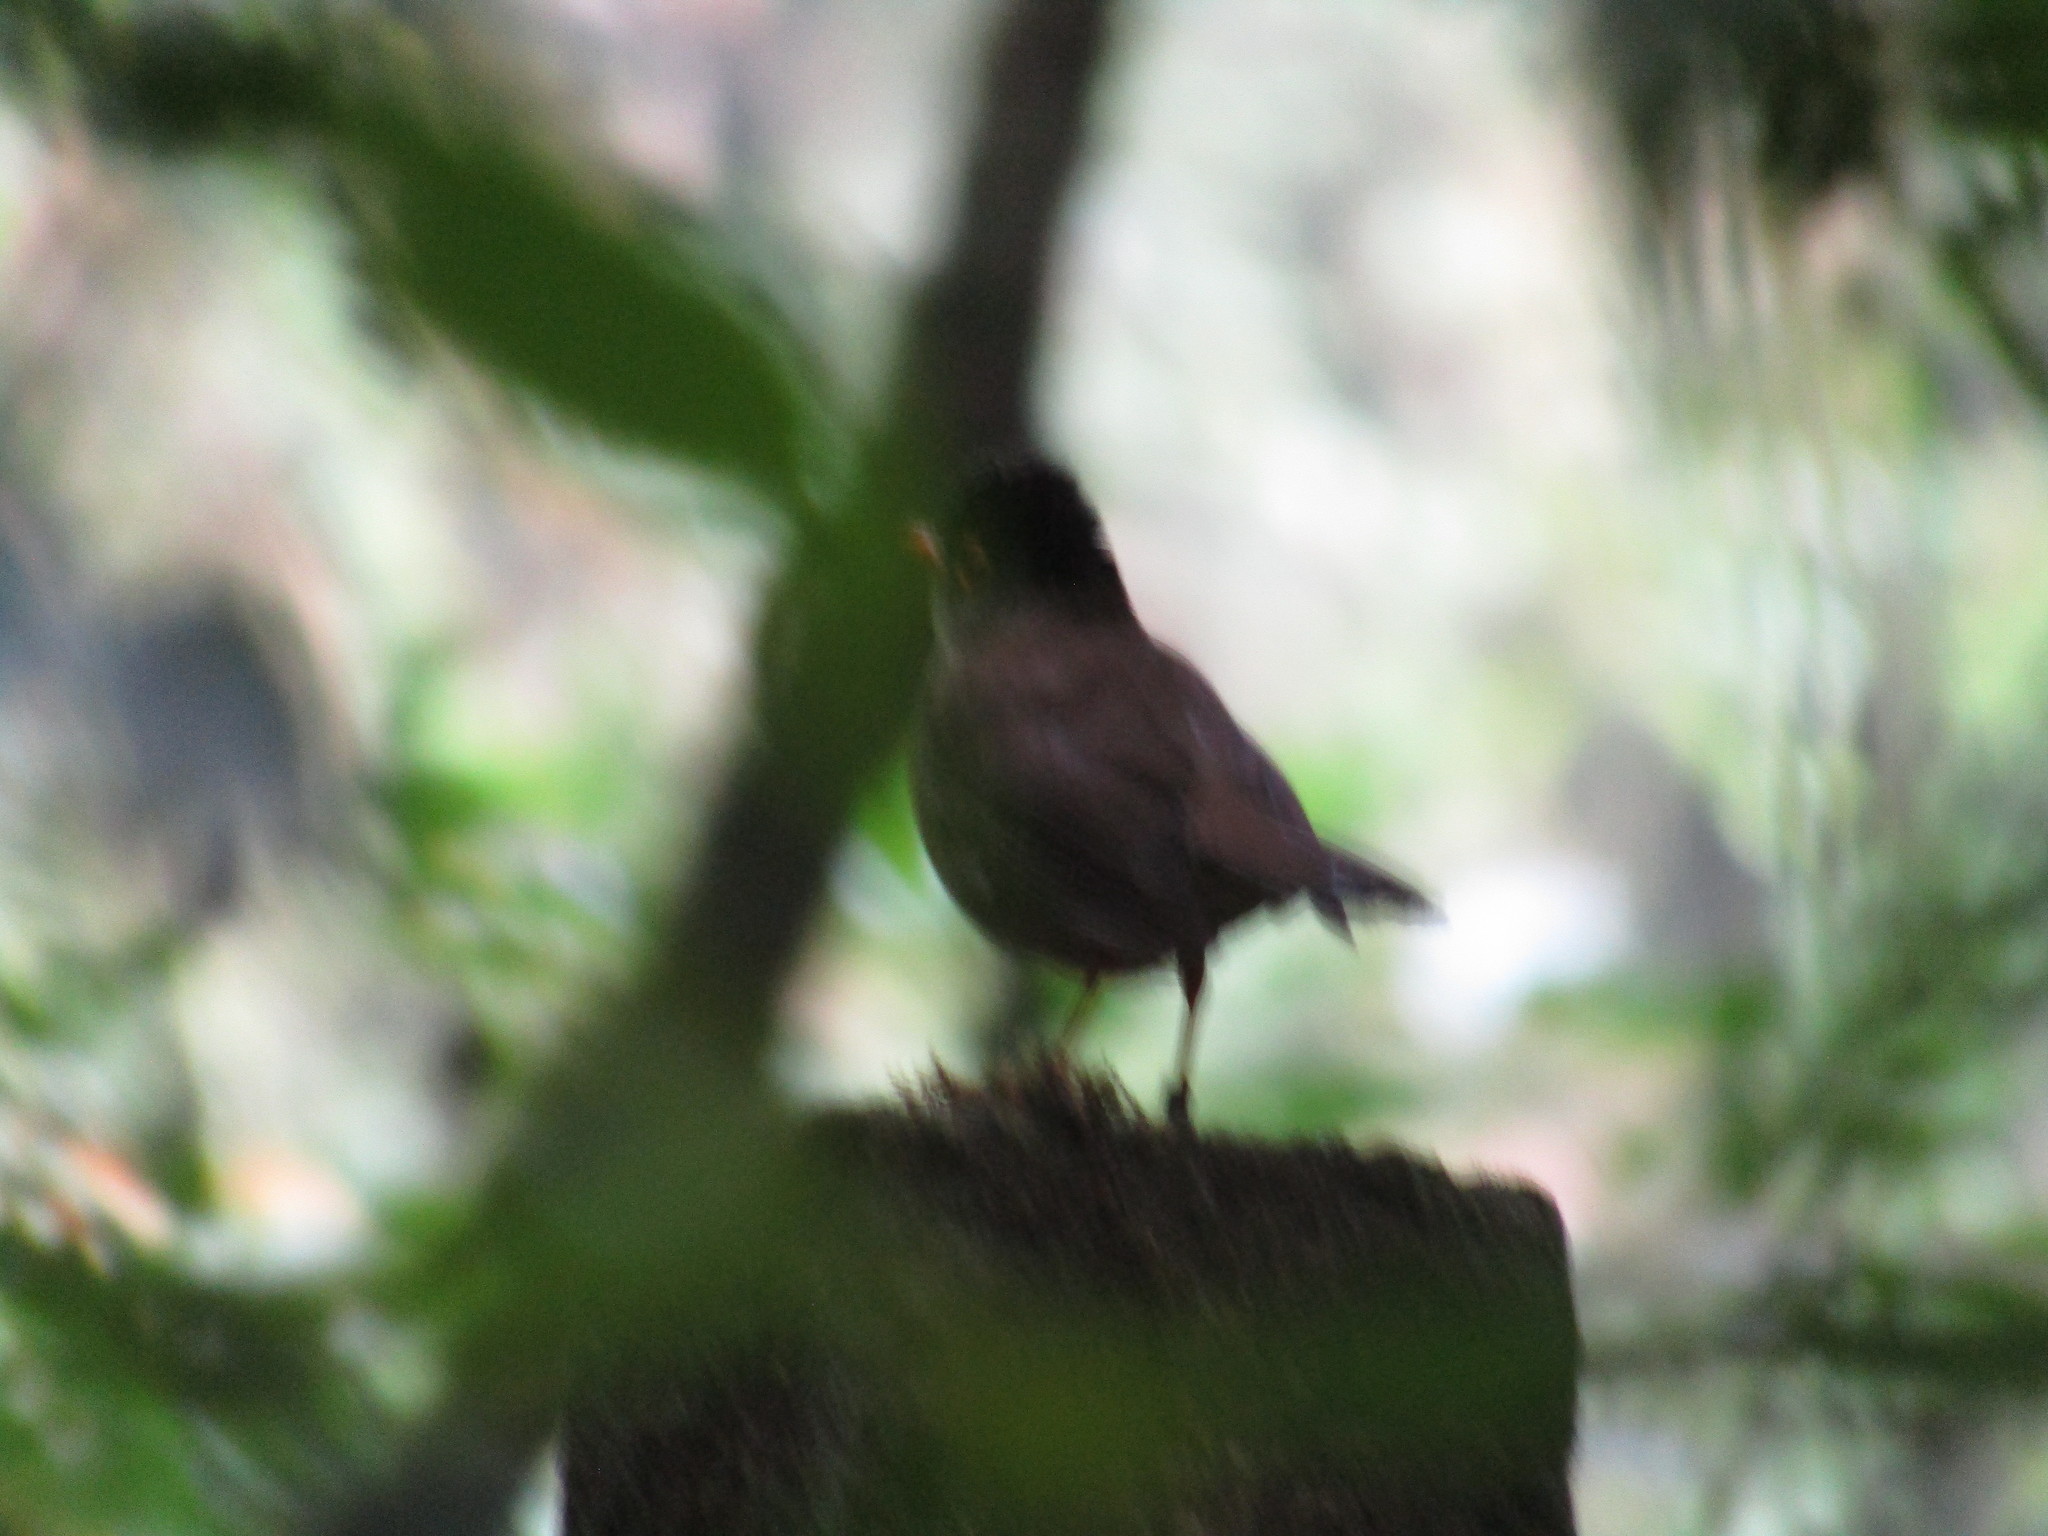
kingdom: Animalia
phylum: Chordata
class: Aves
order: Passeriformes
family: Turdidae
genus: Catharus
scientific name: Catharus mexicanus
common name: Black-headed nightingale-thrush
